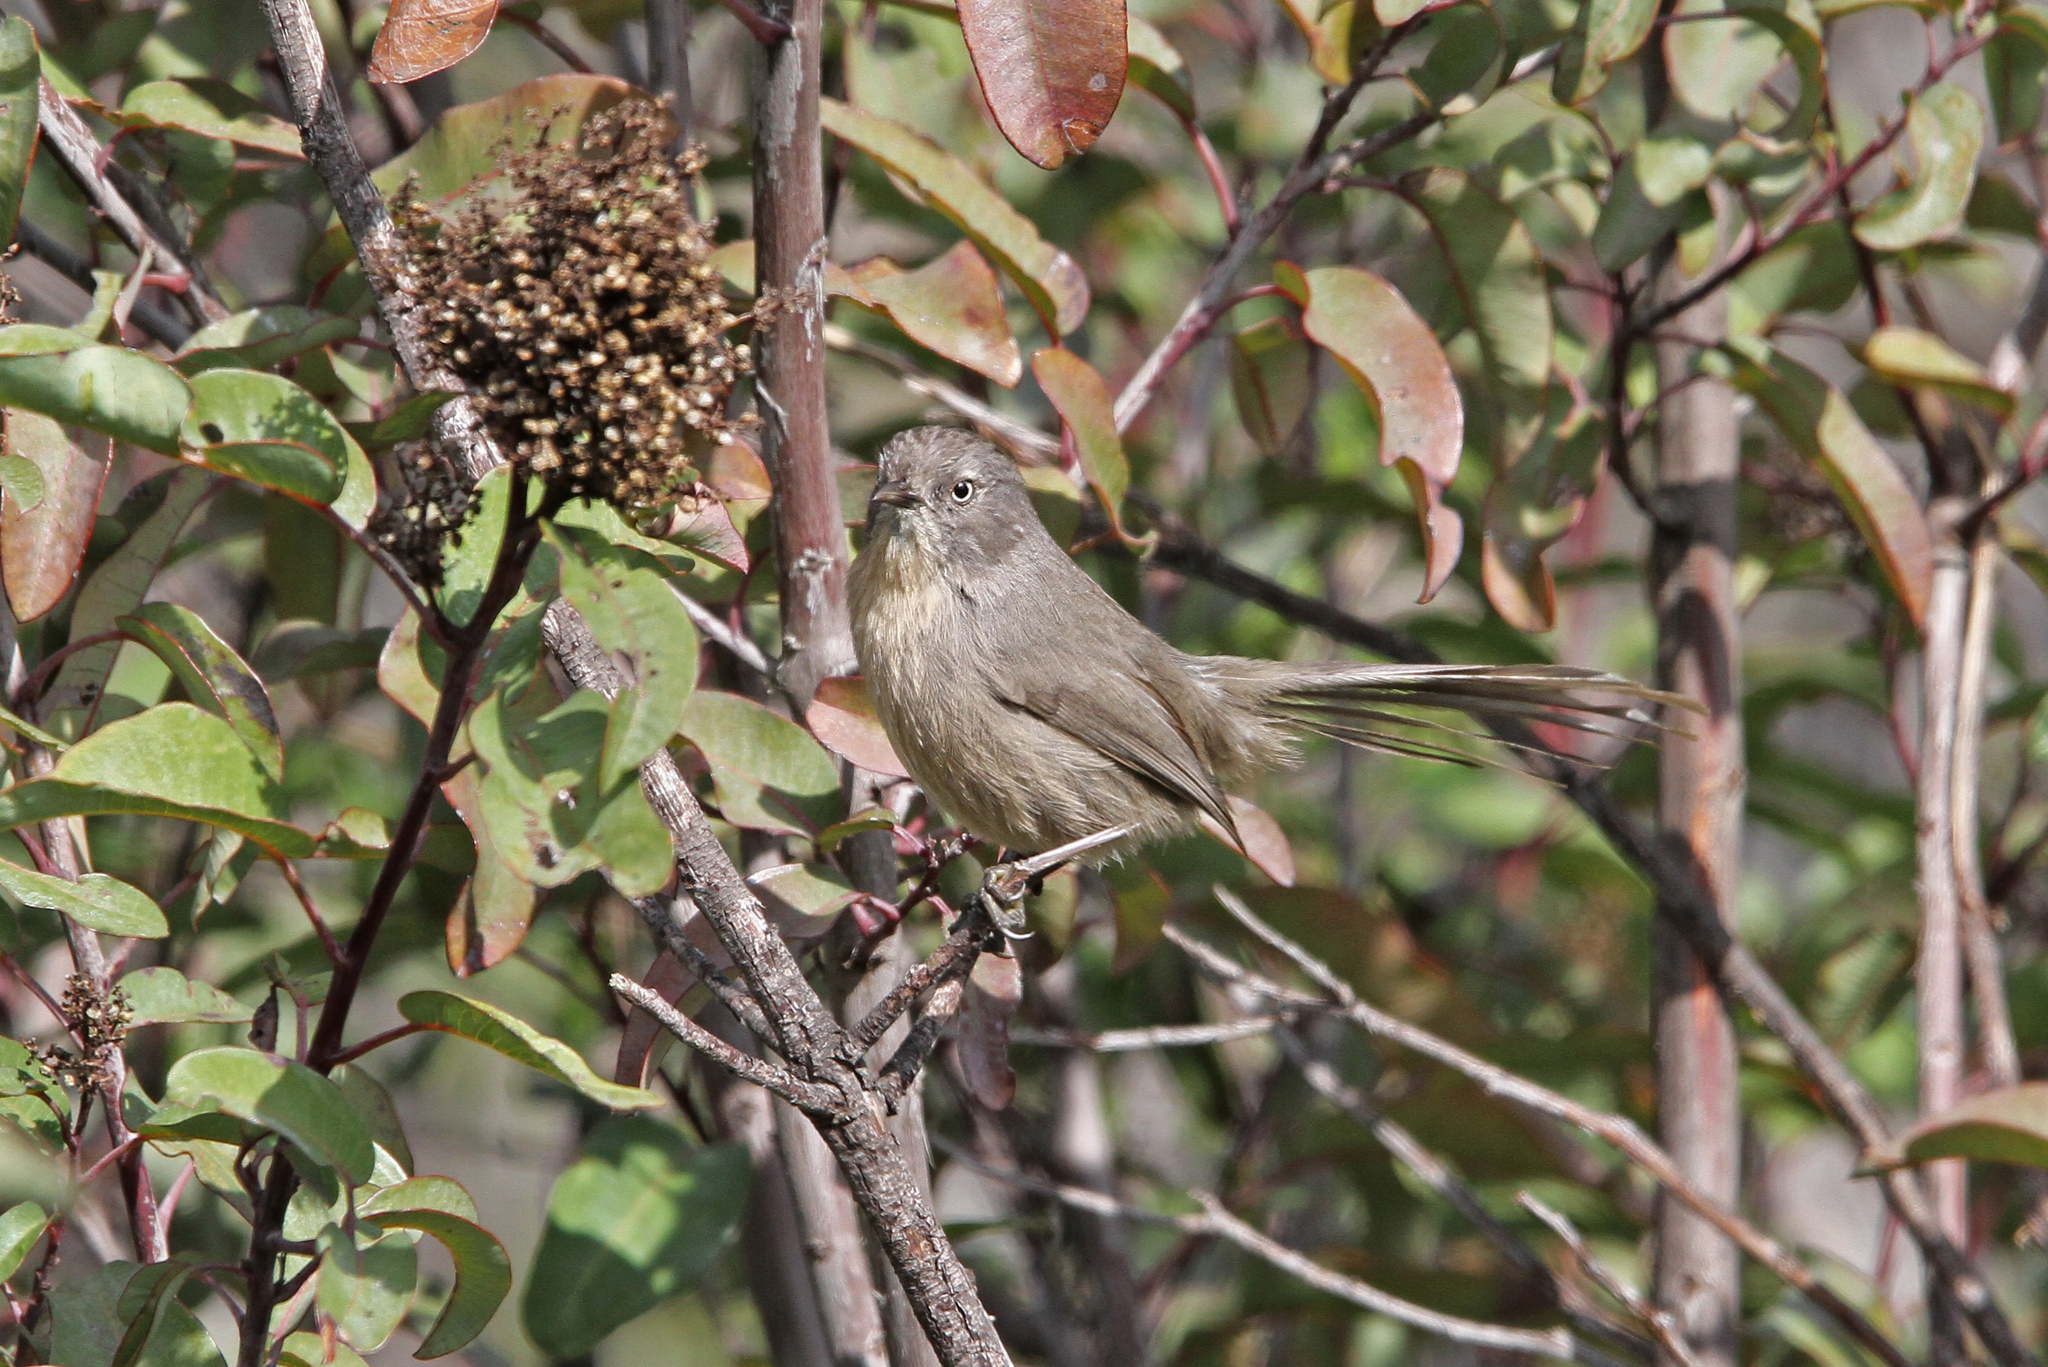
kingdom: Animalia
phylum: Chordata
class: Aves
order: Passeriformes
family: Sylviidae
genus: Chamaea
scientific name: Chamaea fasciata
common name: Wrentit
